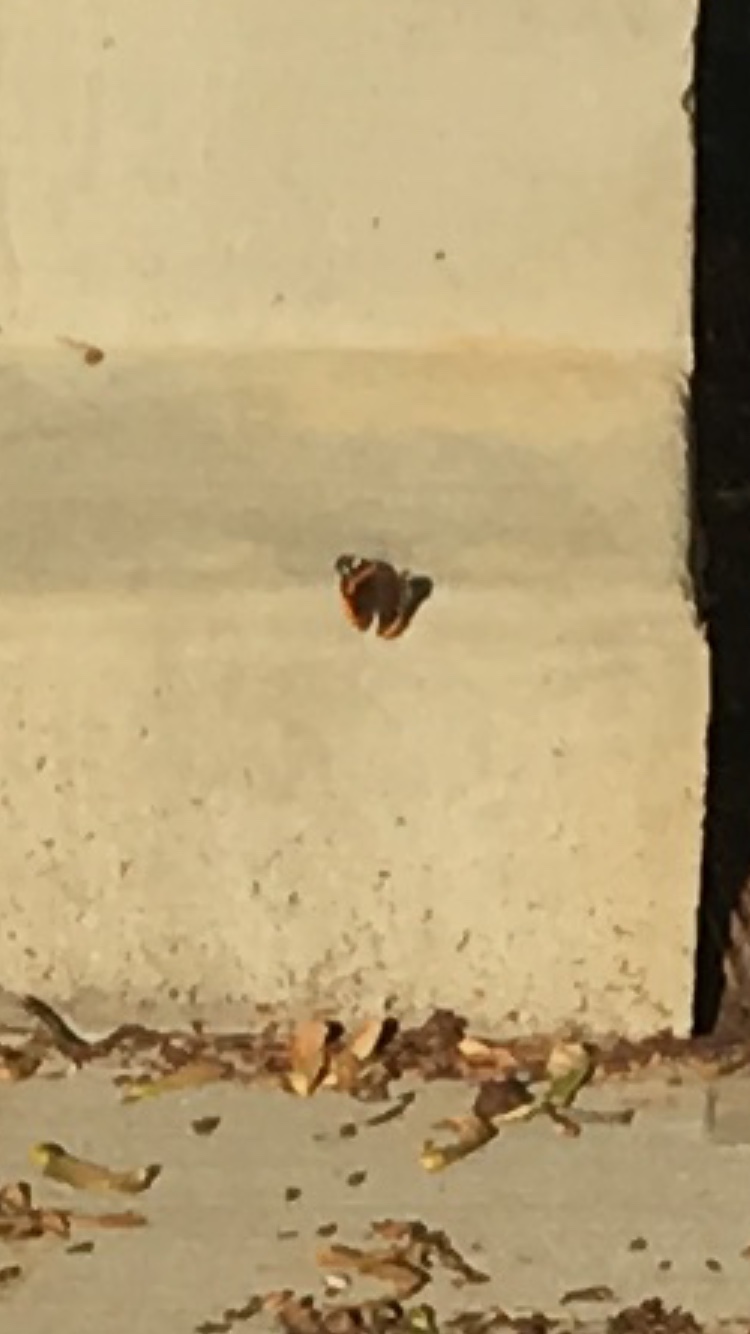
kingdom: Animalia
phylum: Arthropoda
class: Insecta
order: Lepidoptera
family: Nymphalidae
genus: Vanessa
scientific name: Vanessa atalanta
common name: Red admiral
